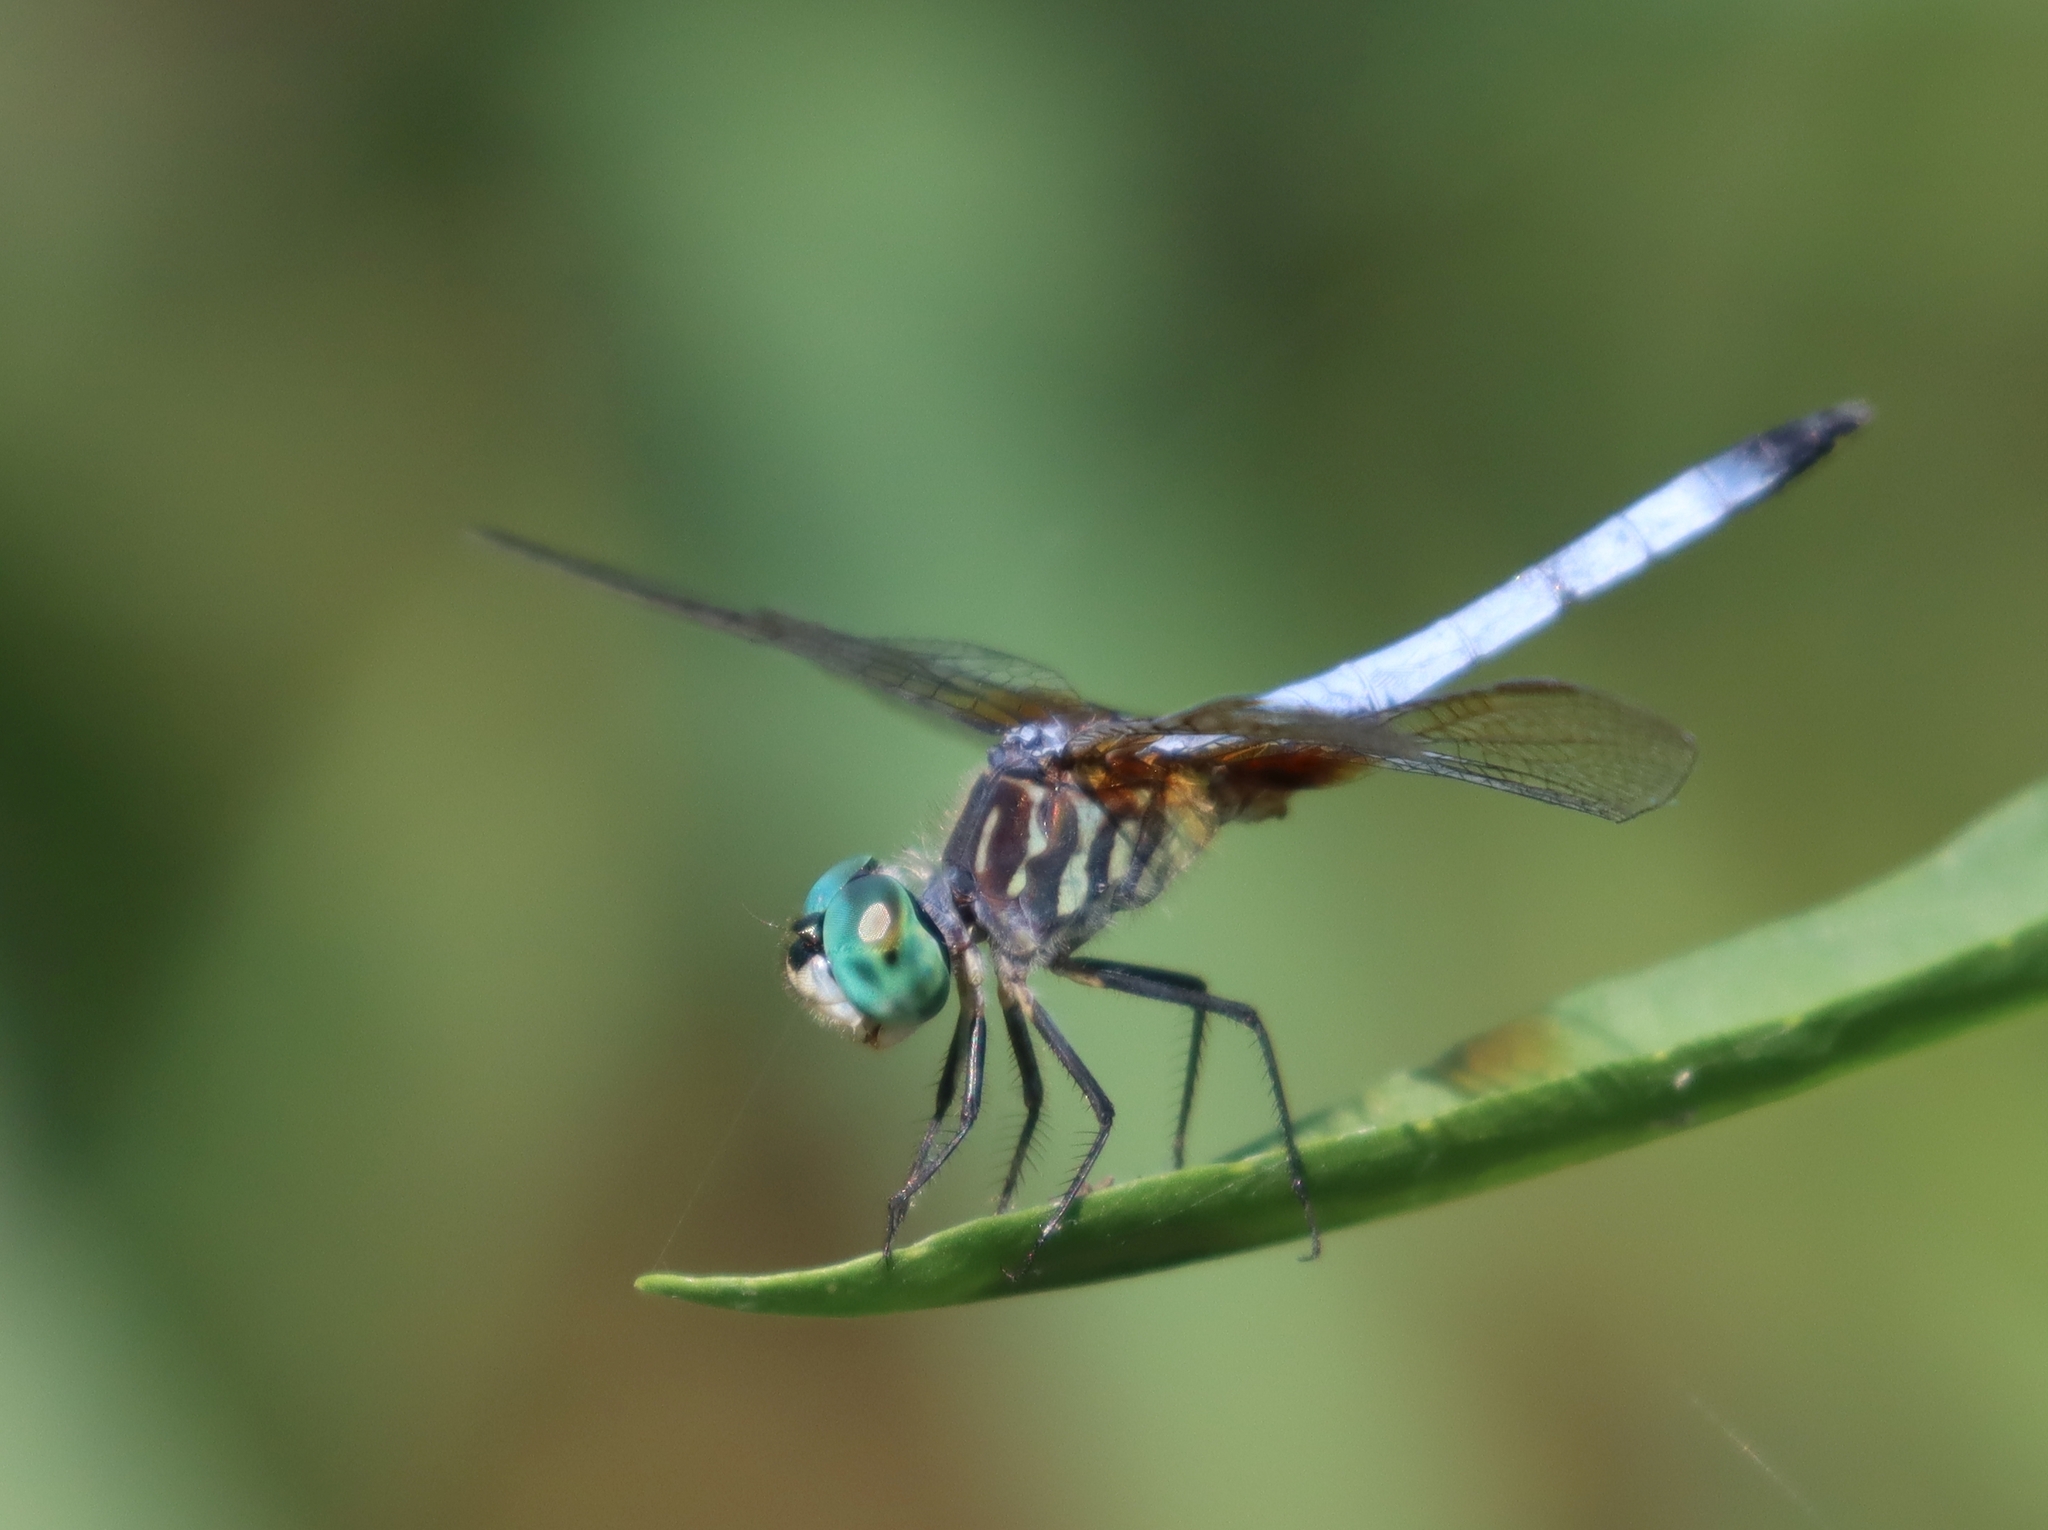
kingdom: Animalia
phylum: Arthropoda
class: Insecta
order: Odonata
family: Libellulidae
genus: Pachydiplax
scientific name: Pachydiplax longipennis
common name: Blue dasher
